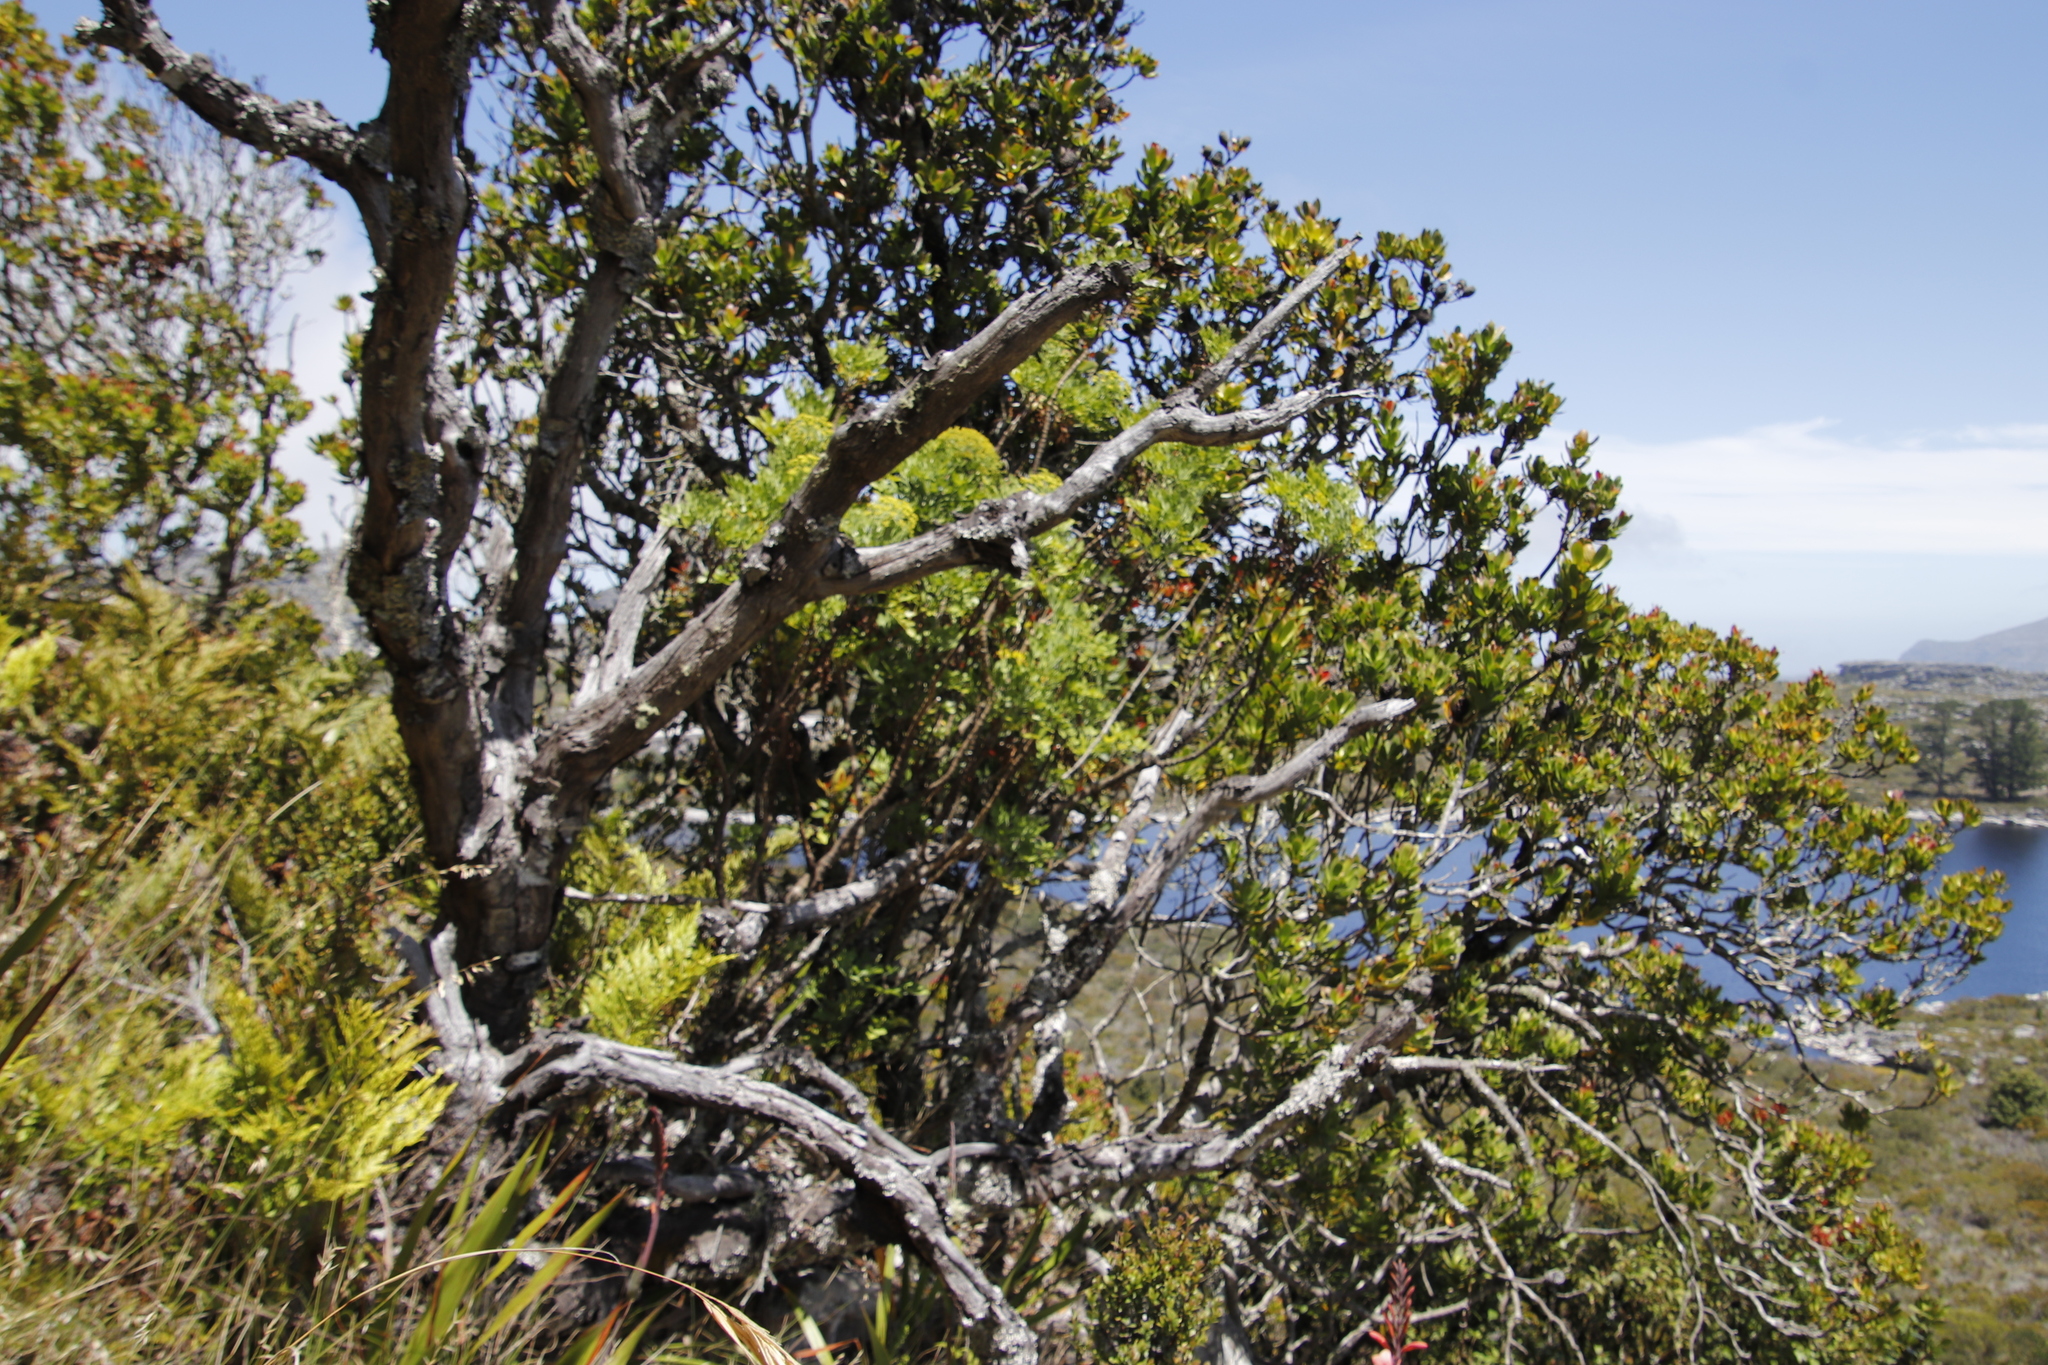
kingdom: Plantae
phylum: Tracheophyta
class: Magnoliopsida
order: Apiales
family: Apiaceae
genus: Notobubon
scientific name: Notobubon galbanum
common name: Blisterbush
